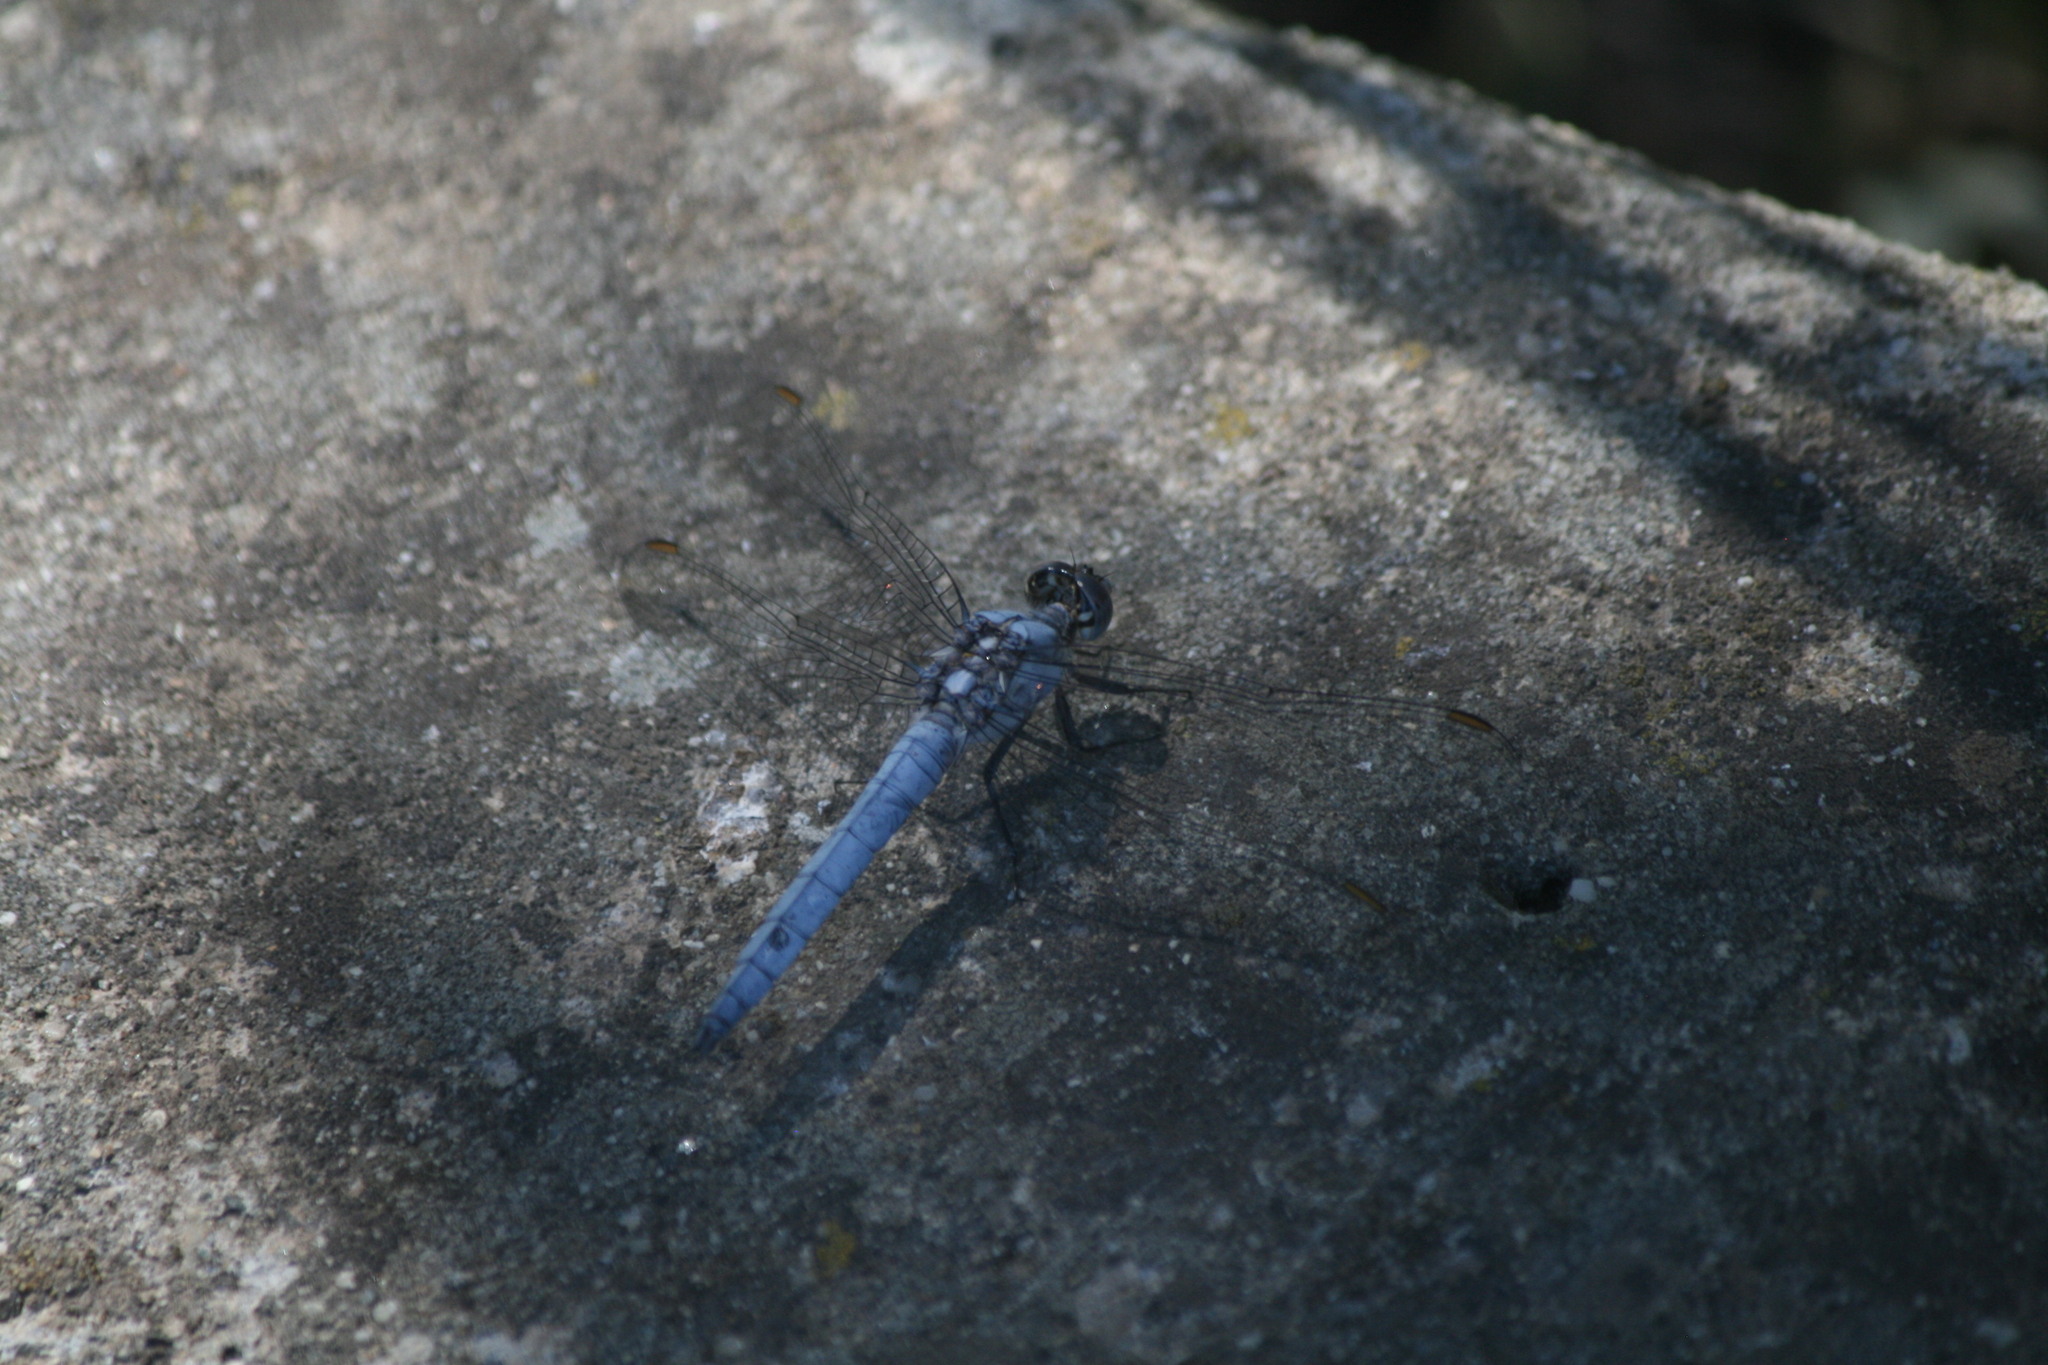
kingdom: Animalia
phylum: Arthropoda
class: Insecta
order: Odonata
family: Libellulidae
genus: Orthetrum
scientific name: Orthetrum brunneum
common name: Southern skimmer
